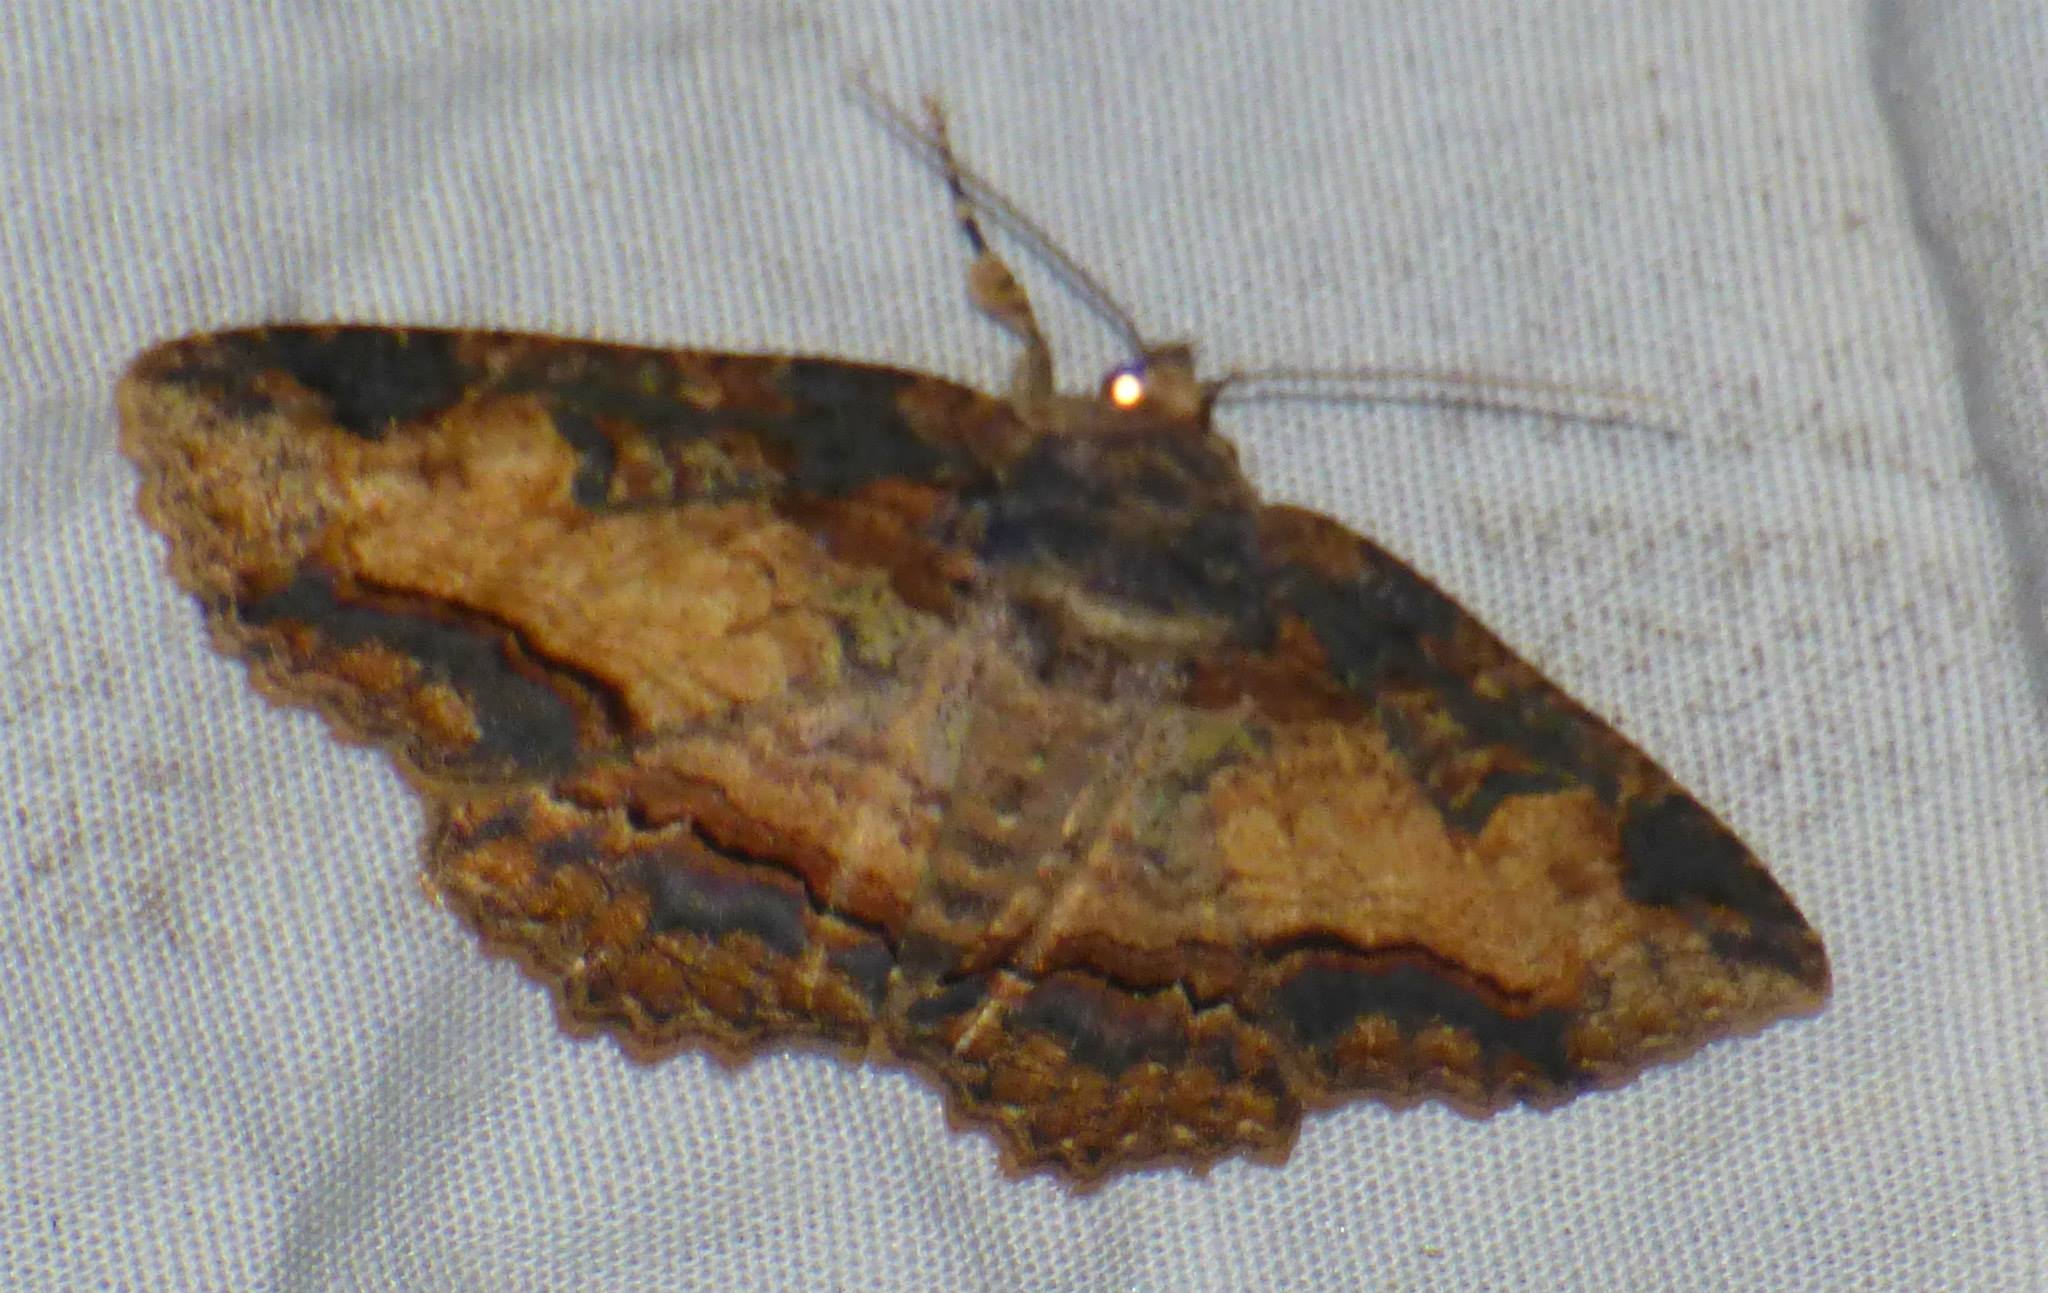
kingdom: Animalia
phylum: Arthropoda
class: Insecta
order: Lepidoptera
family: Erebidae
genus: Zale
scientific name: Zale minerea
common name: Colorful zale moth
